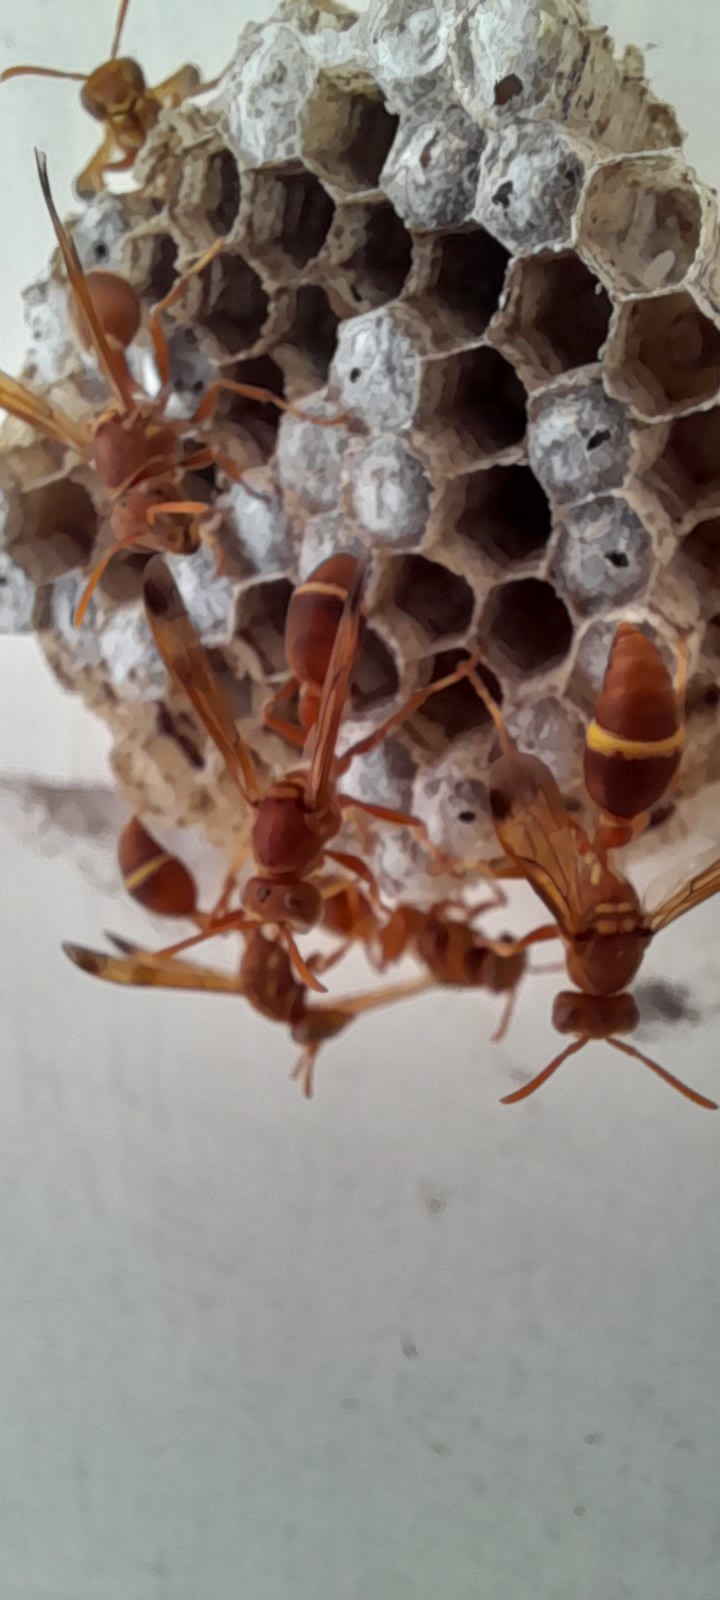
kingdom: Animalia
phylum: Arthropoda
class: Insecta
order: Hymenoptera
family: Vespidae
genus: Ropalidia
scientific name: Ropalidia marginata
